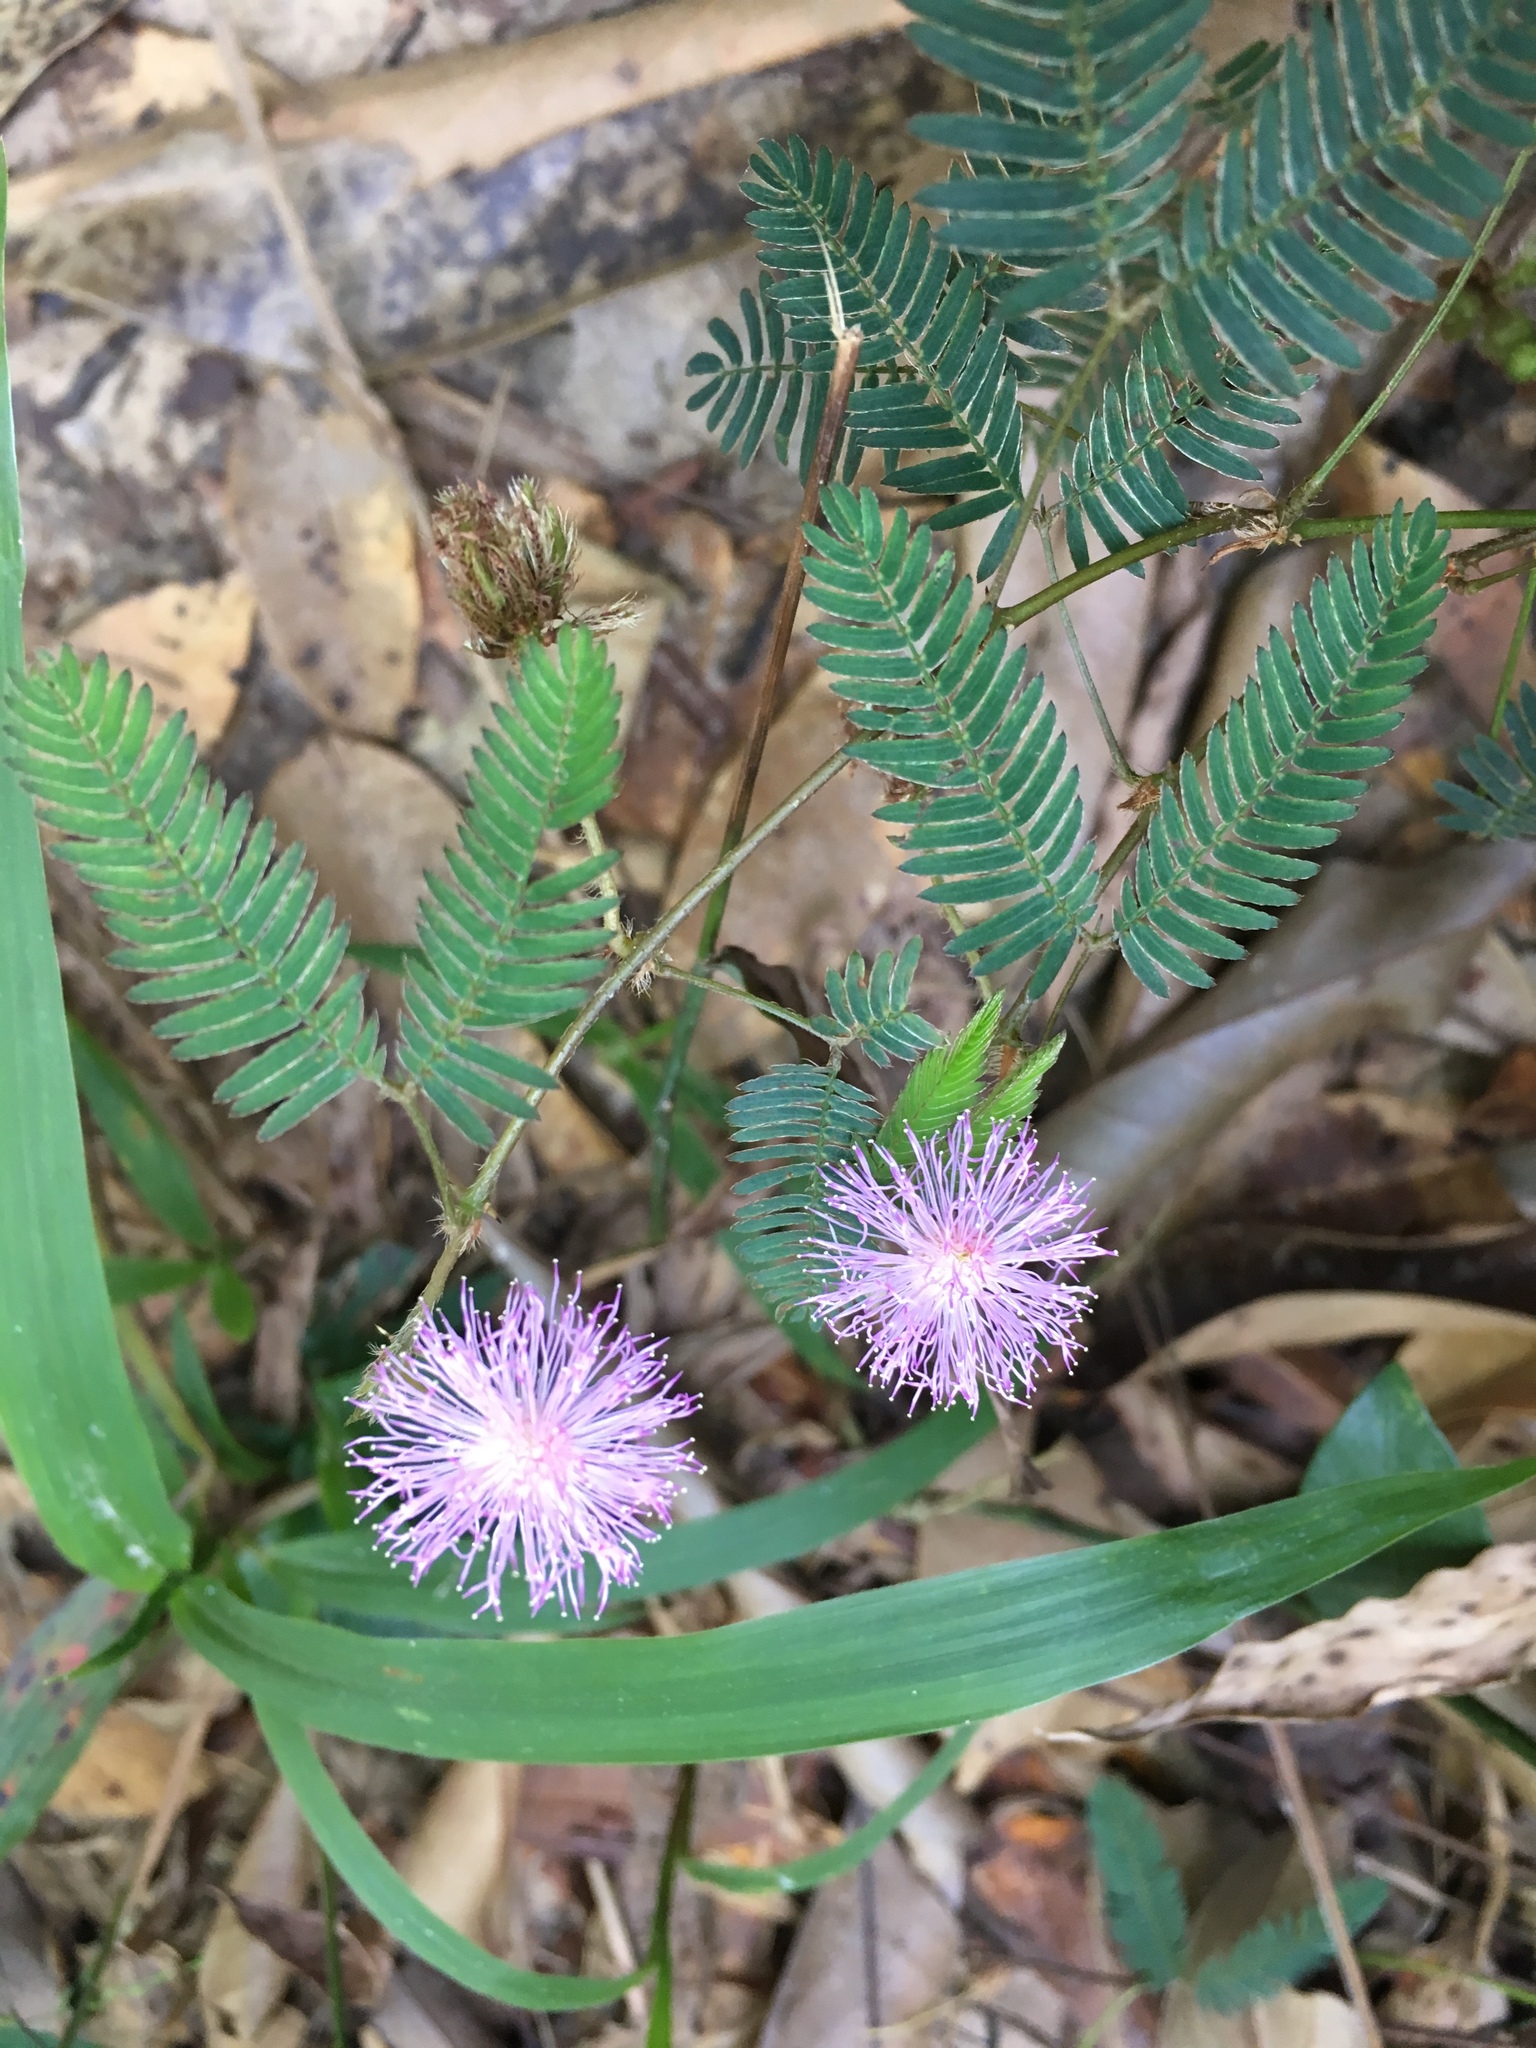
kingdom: Plantae
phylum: Tracheophyta
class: Magnoliopsida
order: Fabales
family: Fabaceae
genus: Mimosa
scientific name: Mimosa pudica
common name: Sensitive plant
